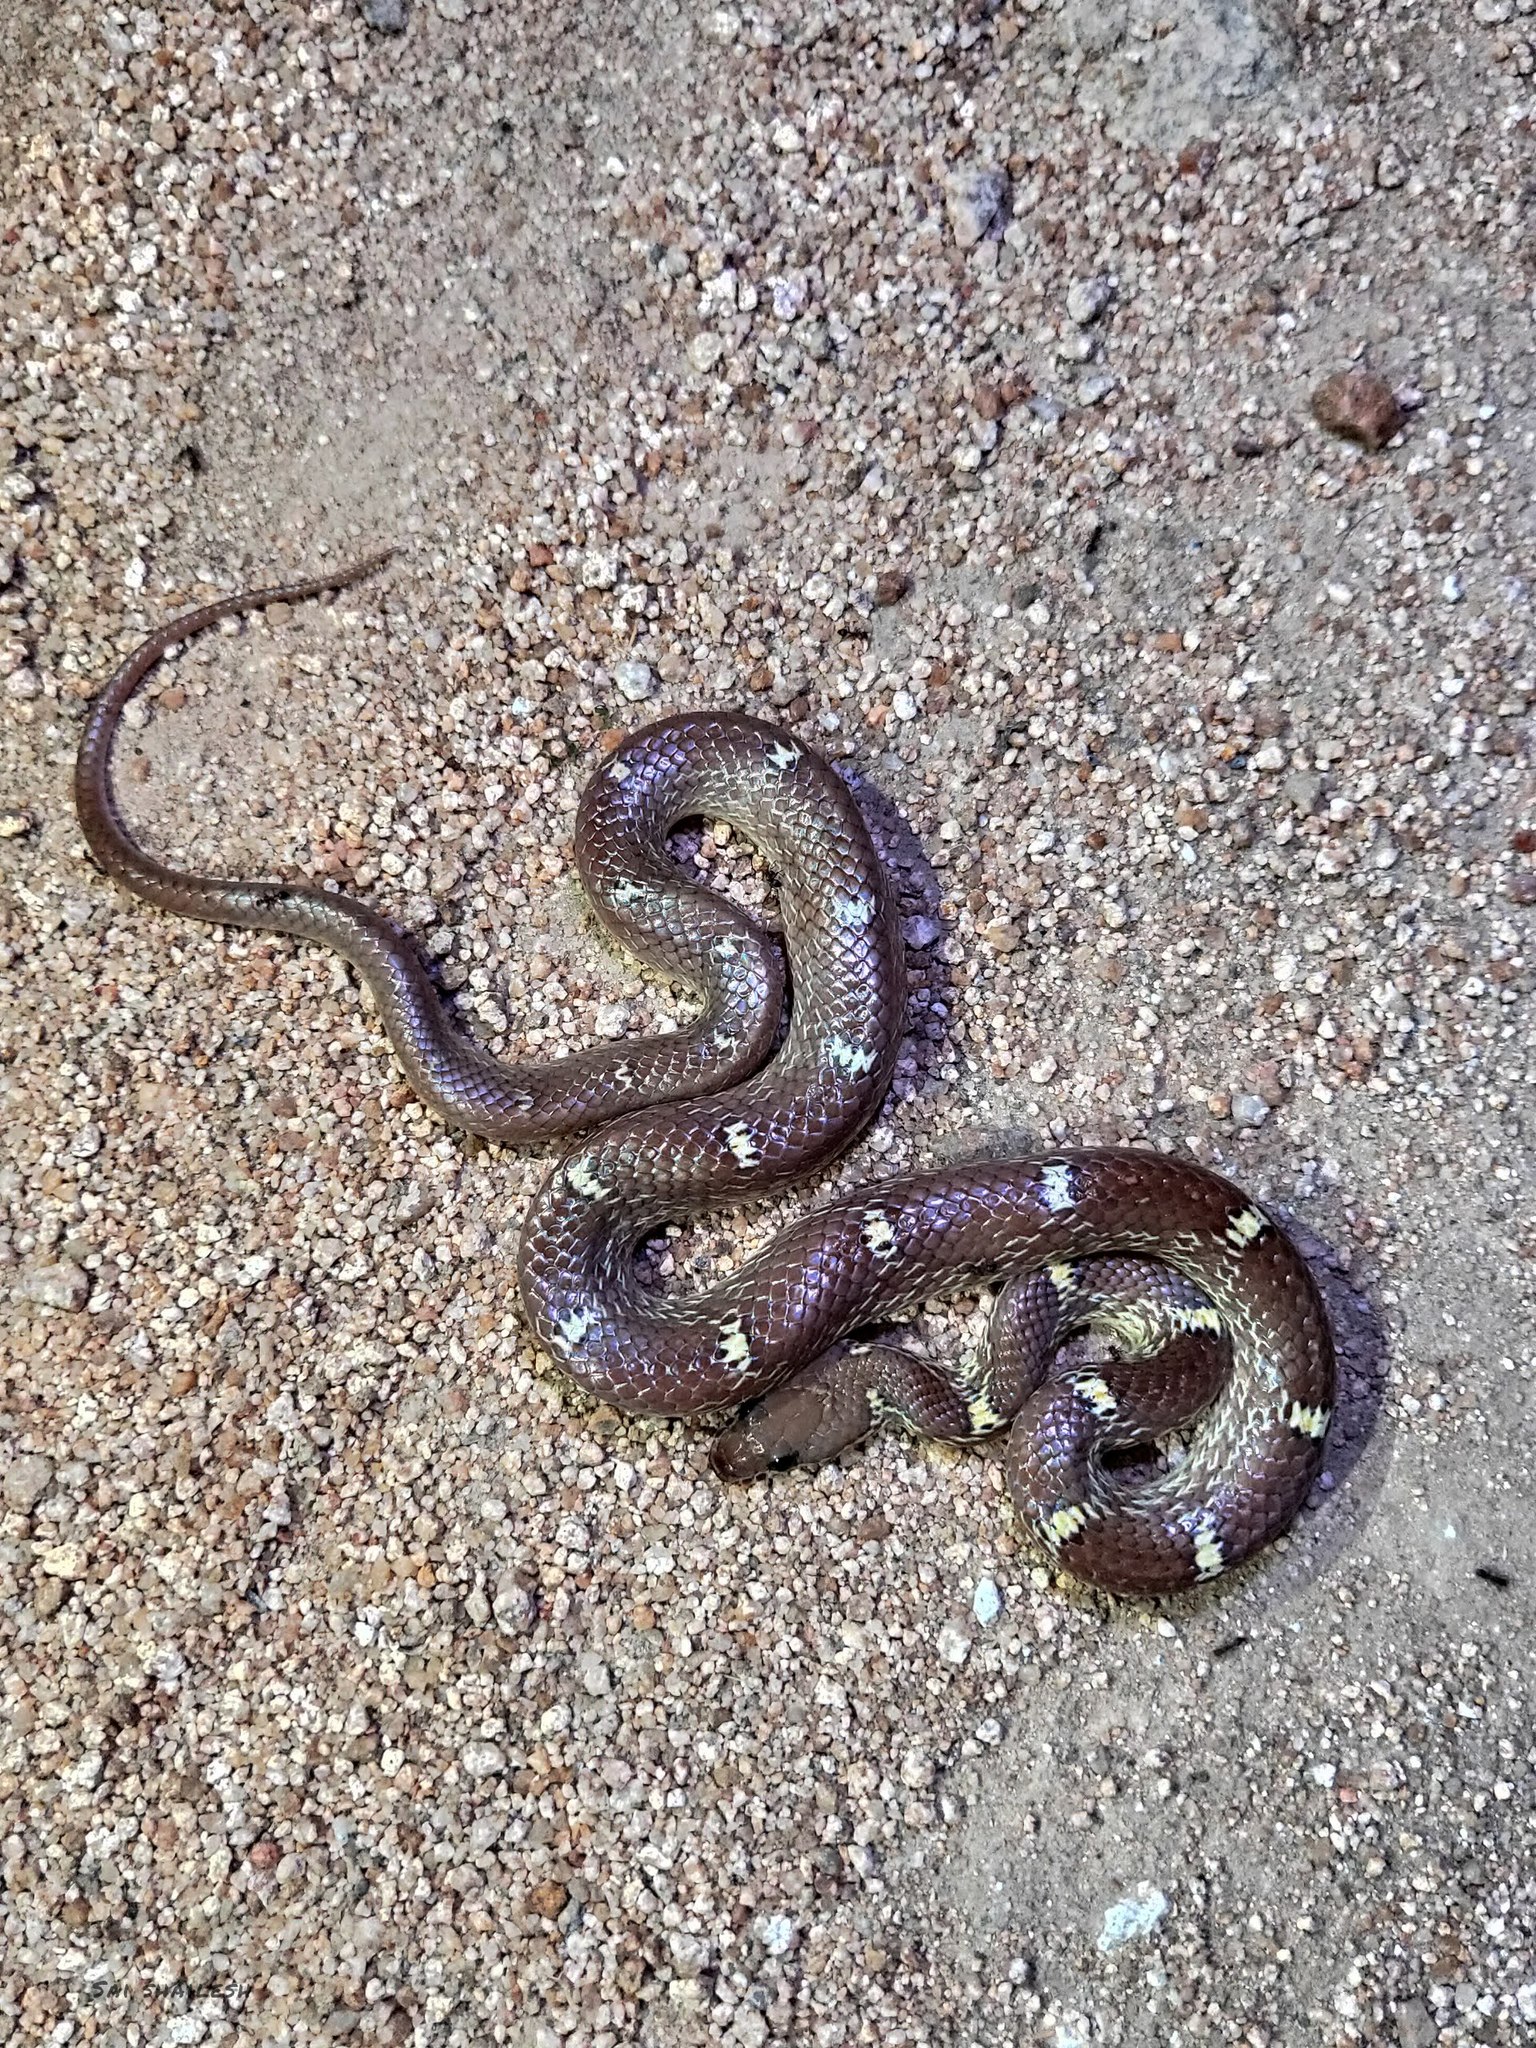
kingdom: Animalia
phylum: Chordata
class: Squamata
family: Colubridae
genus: Lycodon
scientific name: Lycodon fasciolatus
